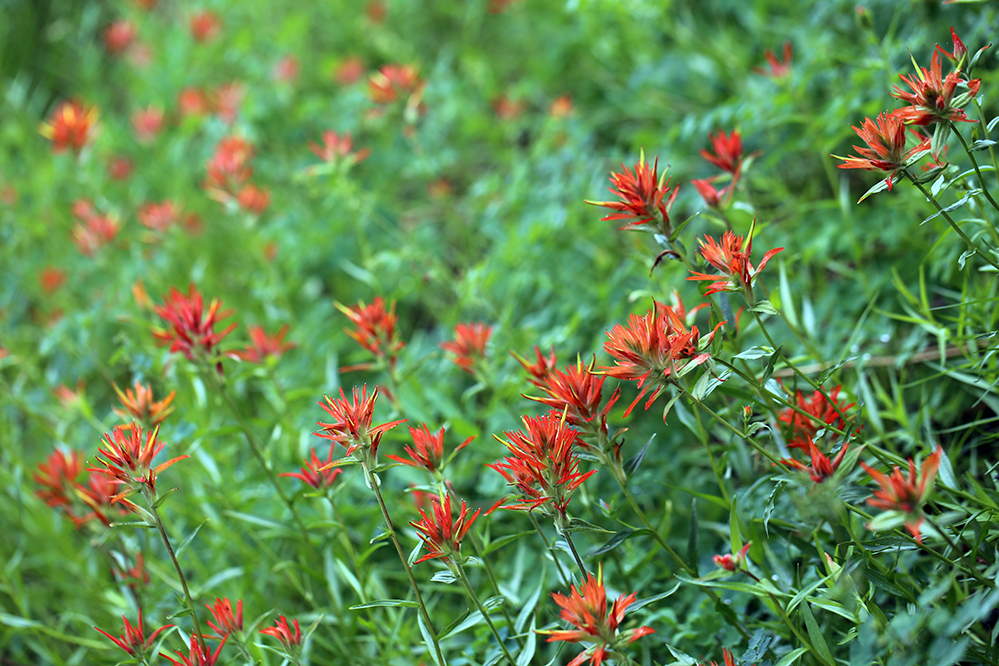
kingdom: Plantae
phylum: Tracheophyta
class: Magnoliopsida
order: Lamiales
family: Orobanchaceae
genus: Castilleja
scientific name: Castilleja miniata
